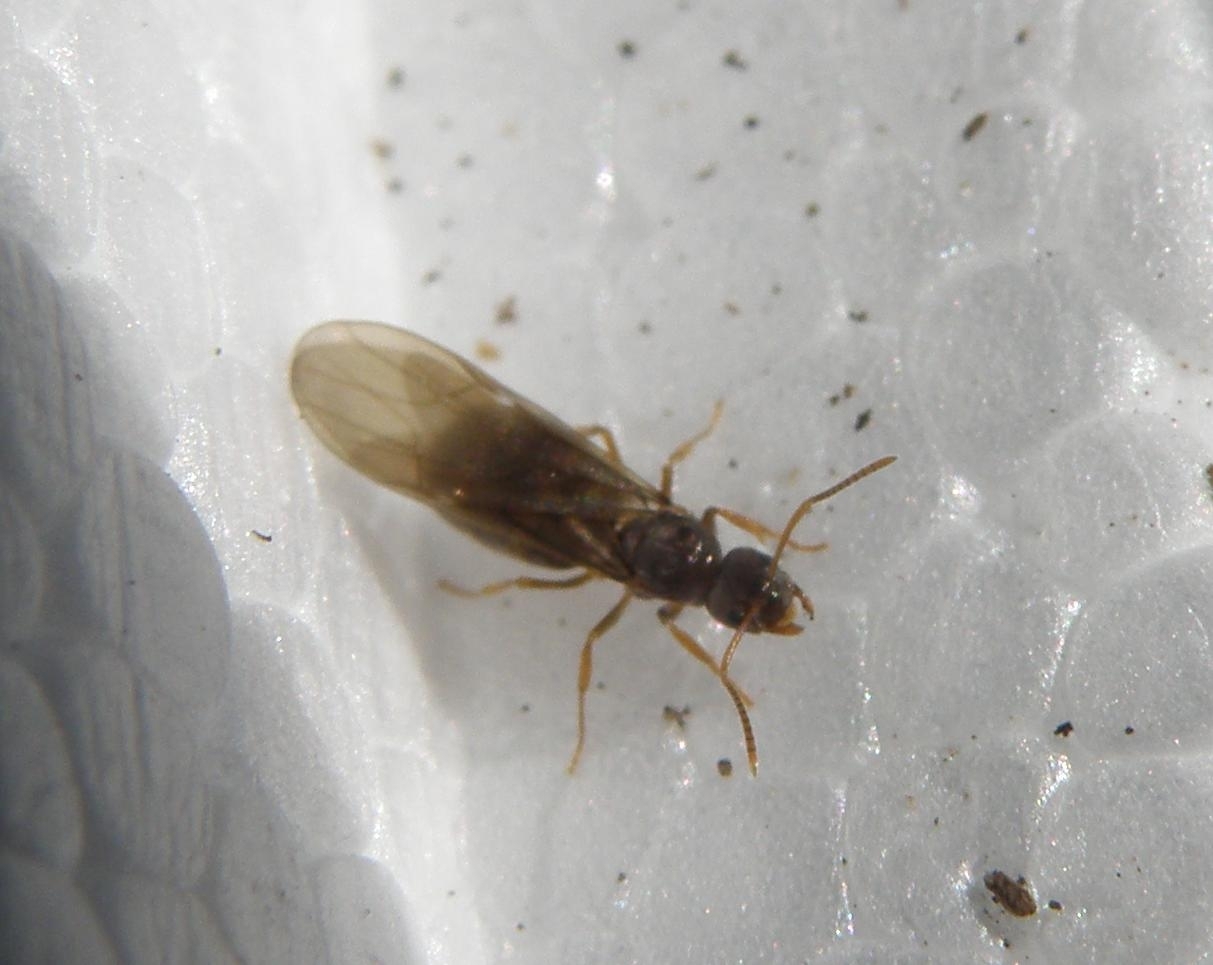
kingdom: Animalia
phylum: Arthropoda
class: Insecta
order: Hymenoptera
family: Formicidae
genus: Paratrechina
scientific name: Paratrechina flavipes
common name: Eastern asian formicine ant
